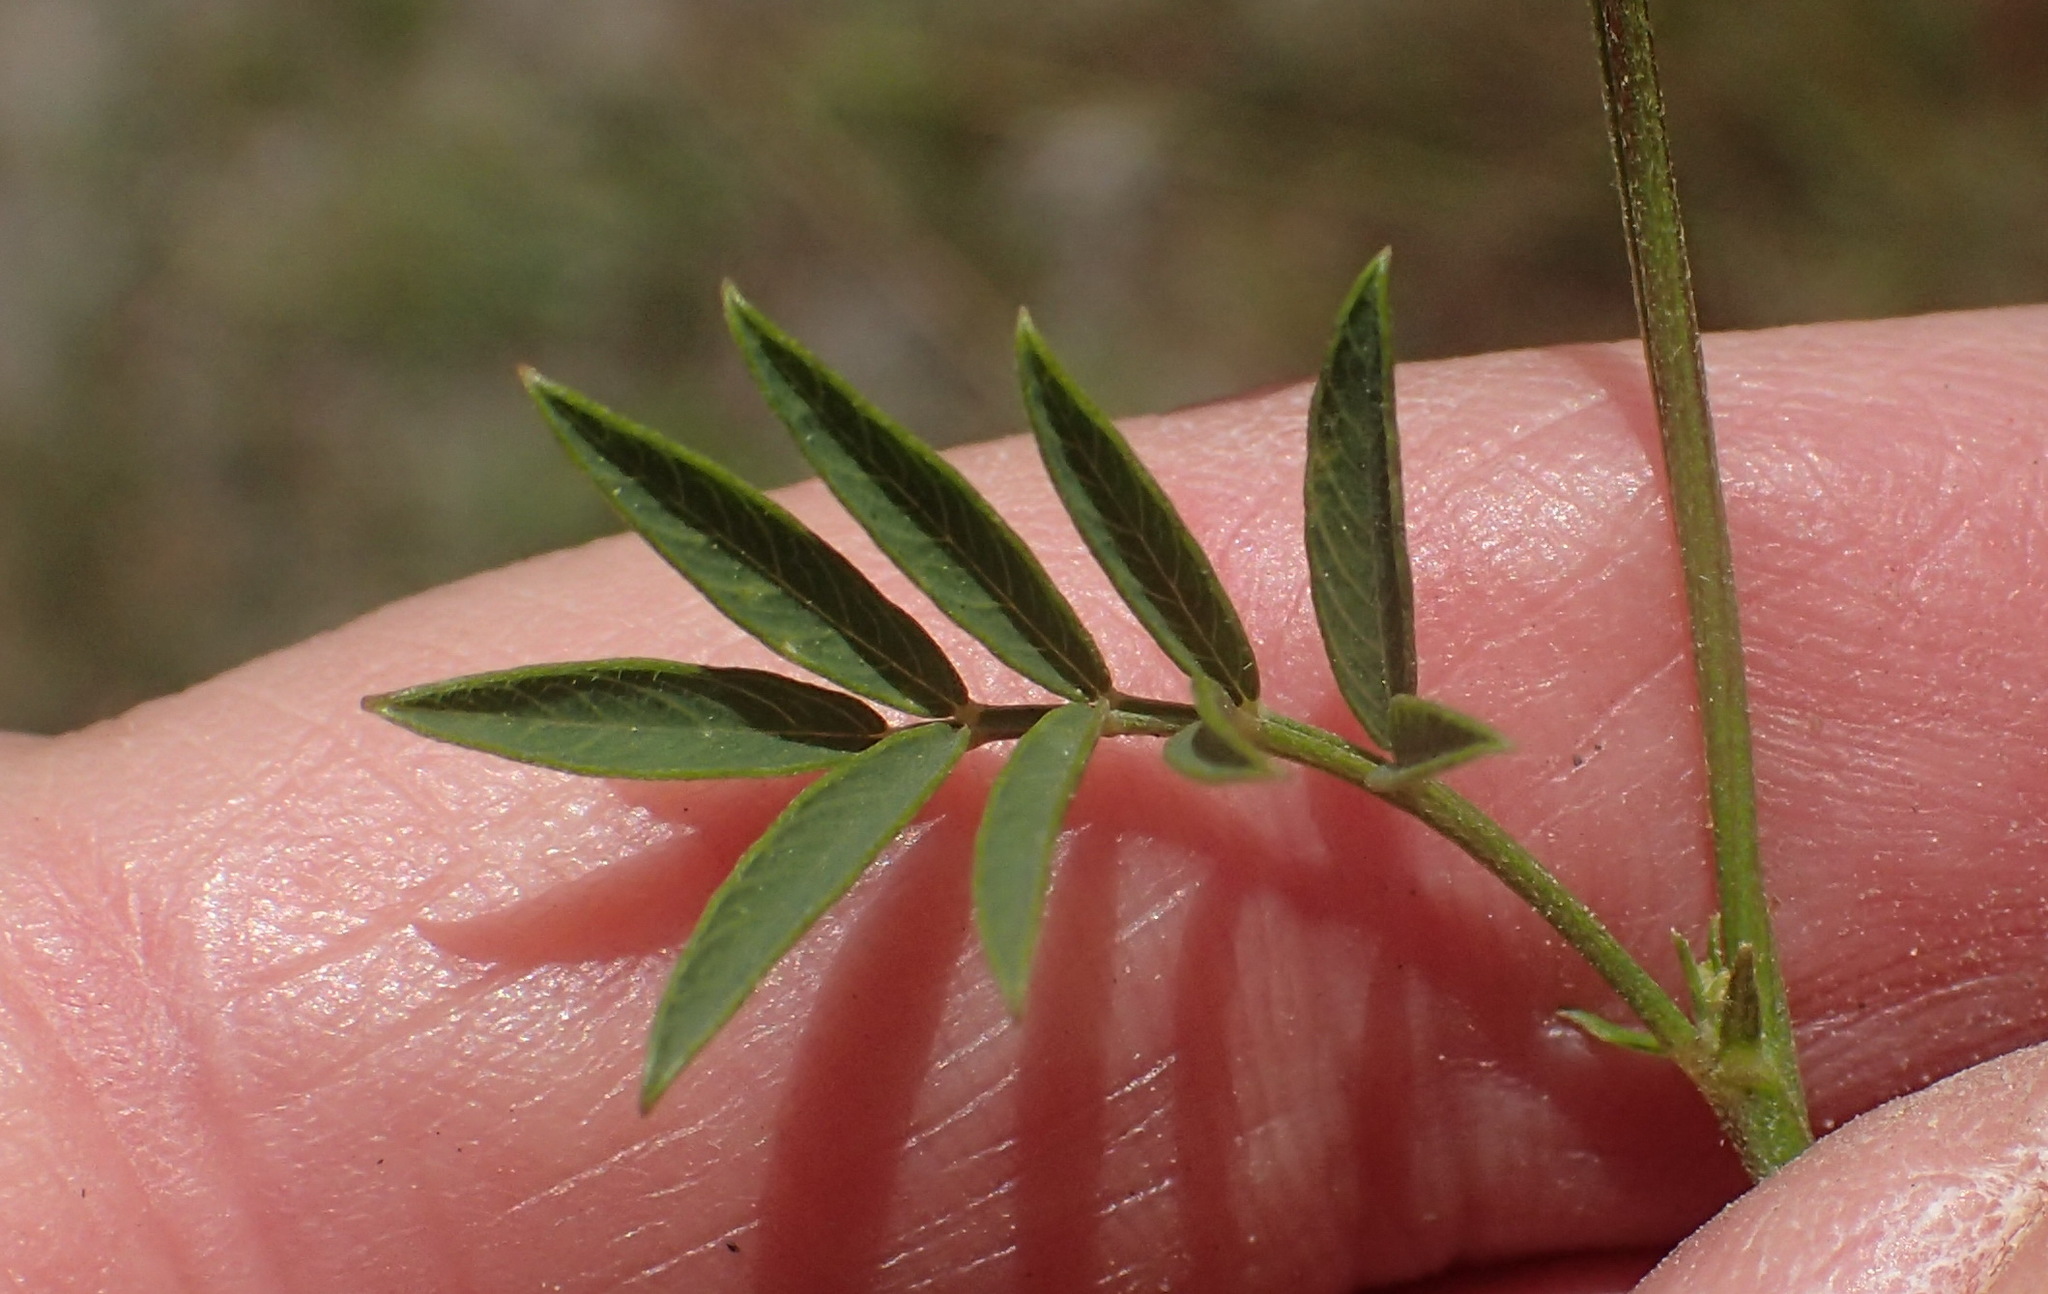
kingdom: Plantae
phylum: Tracheophyta
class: Magnoliopsida
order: Fabales
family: Fabaceae
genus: Tephrosia
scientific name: Tephrosia capensis
